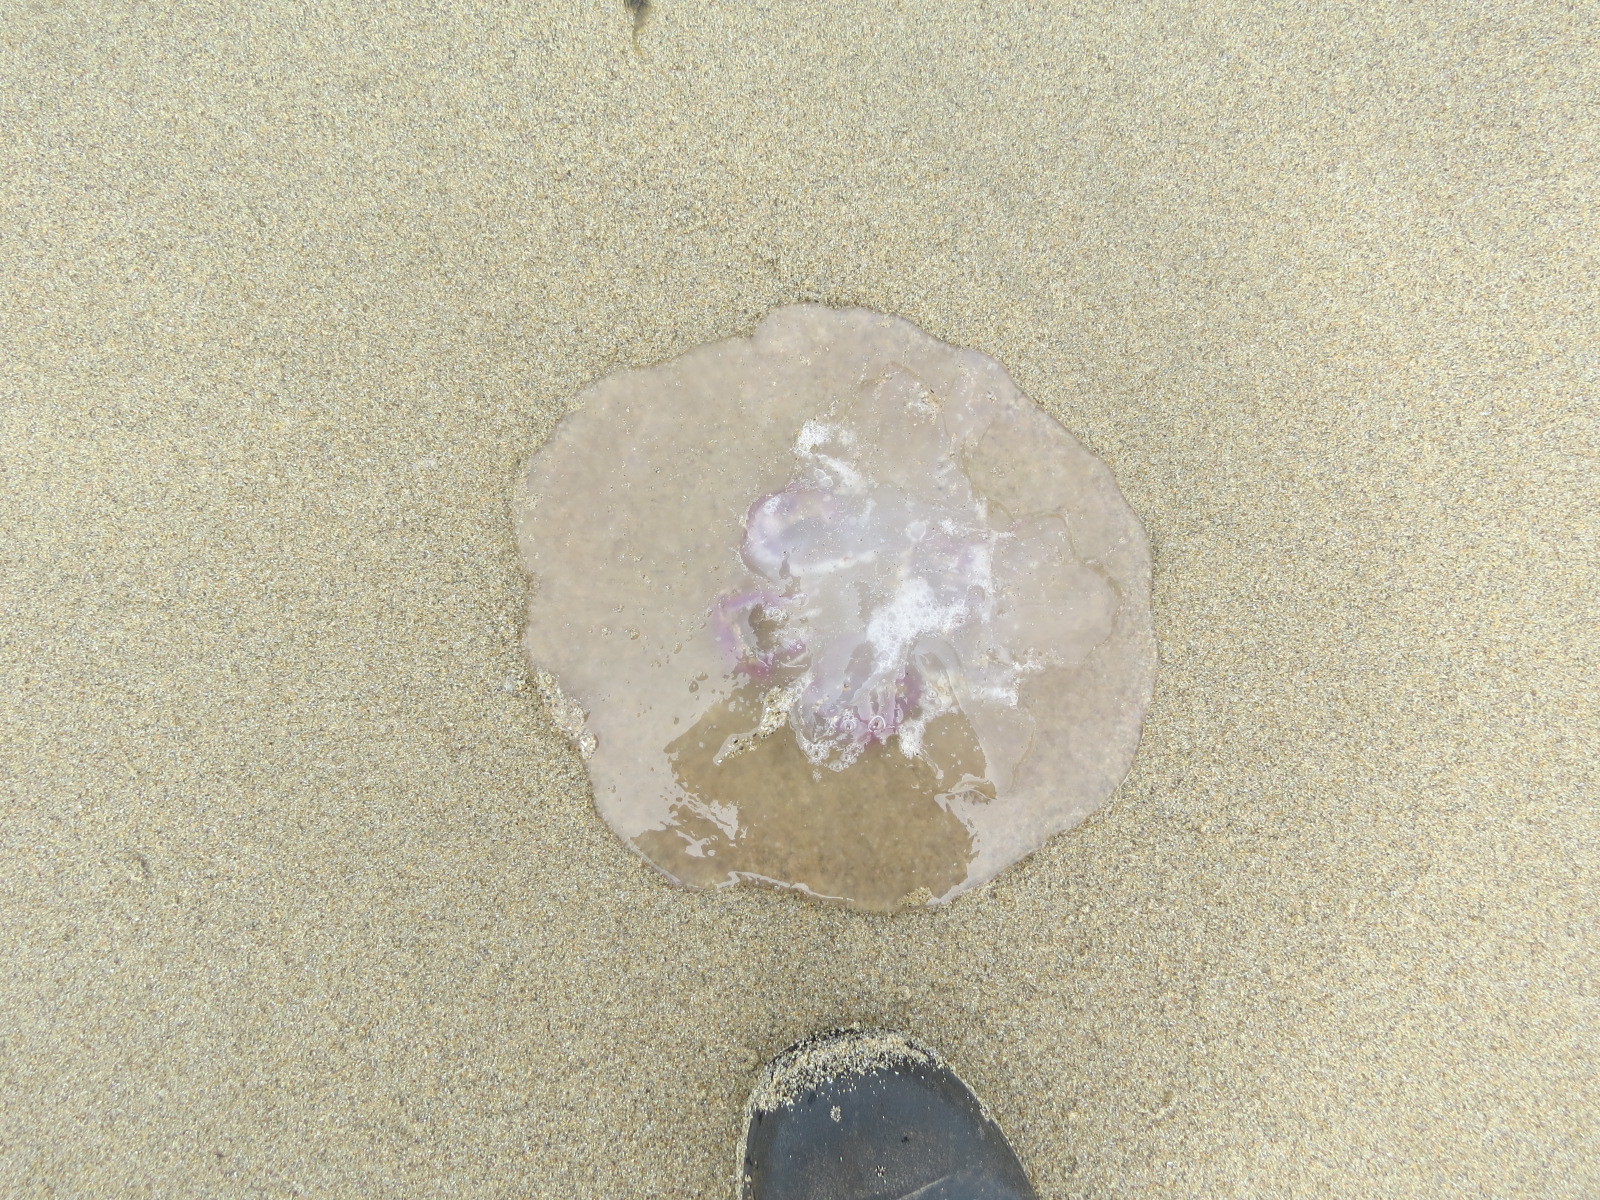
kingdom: Animalia
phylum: Cnidaria
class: Scyphozoa
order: Semaeostomeae
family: Ulmaridae
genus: Aurelia
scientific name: Aurelia labiata
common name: Pacific moon jelly
